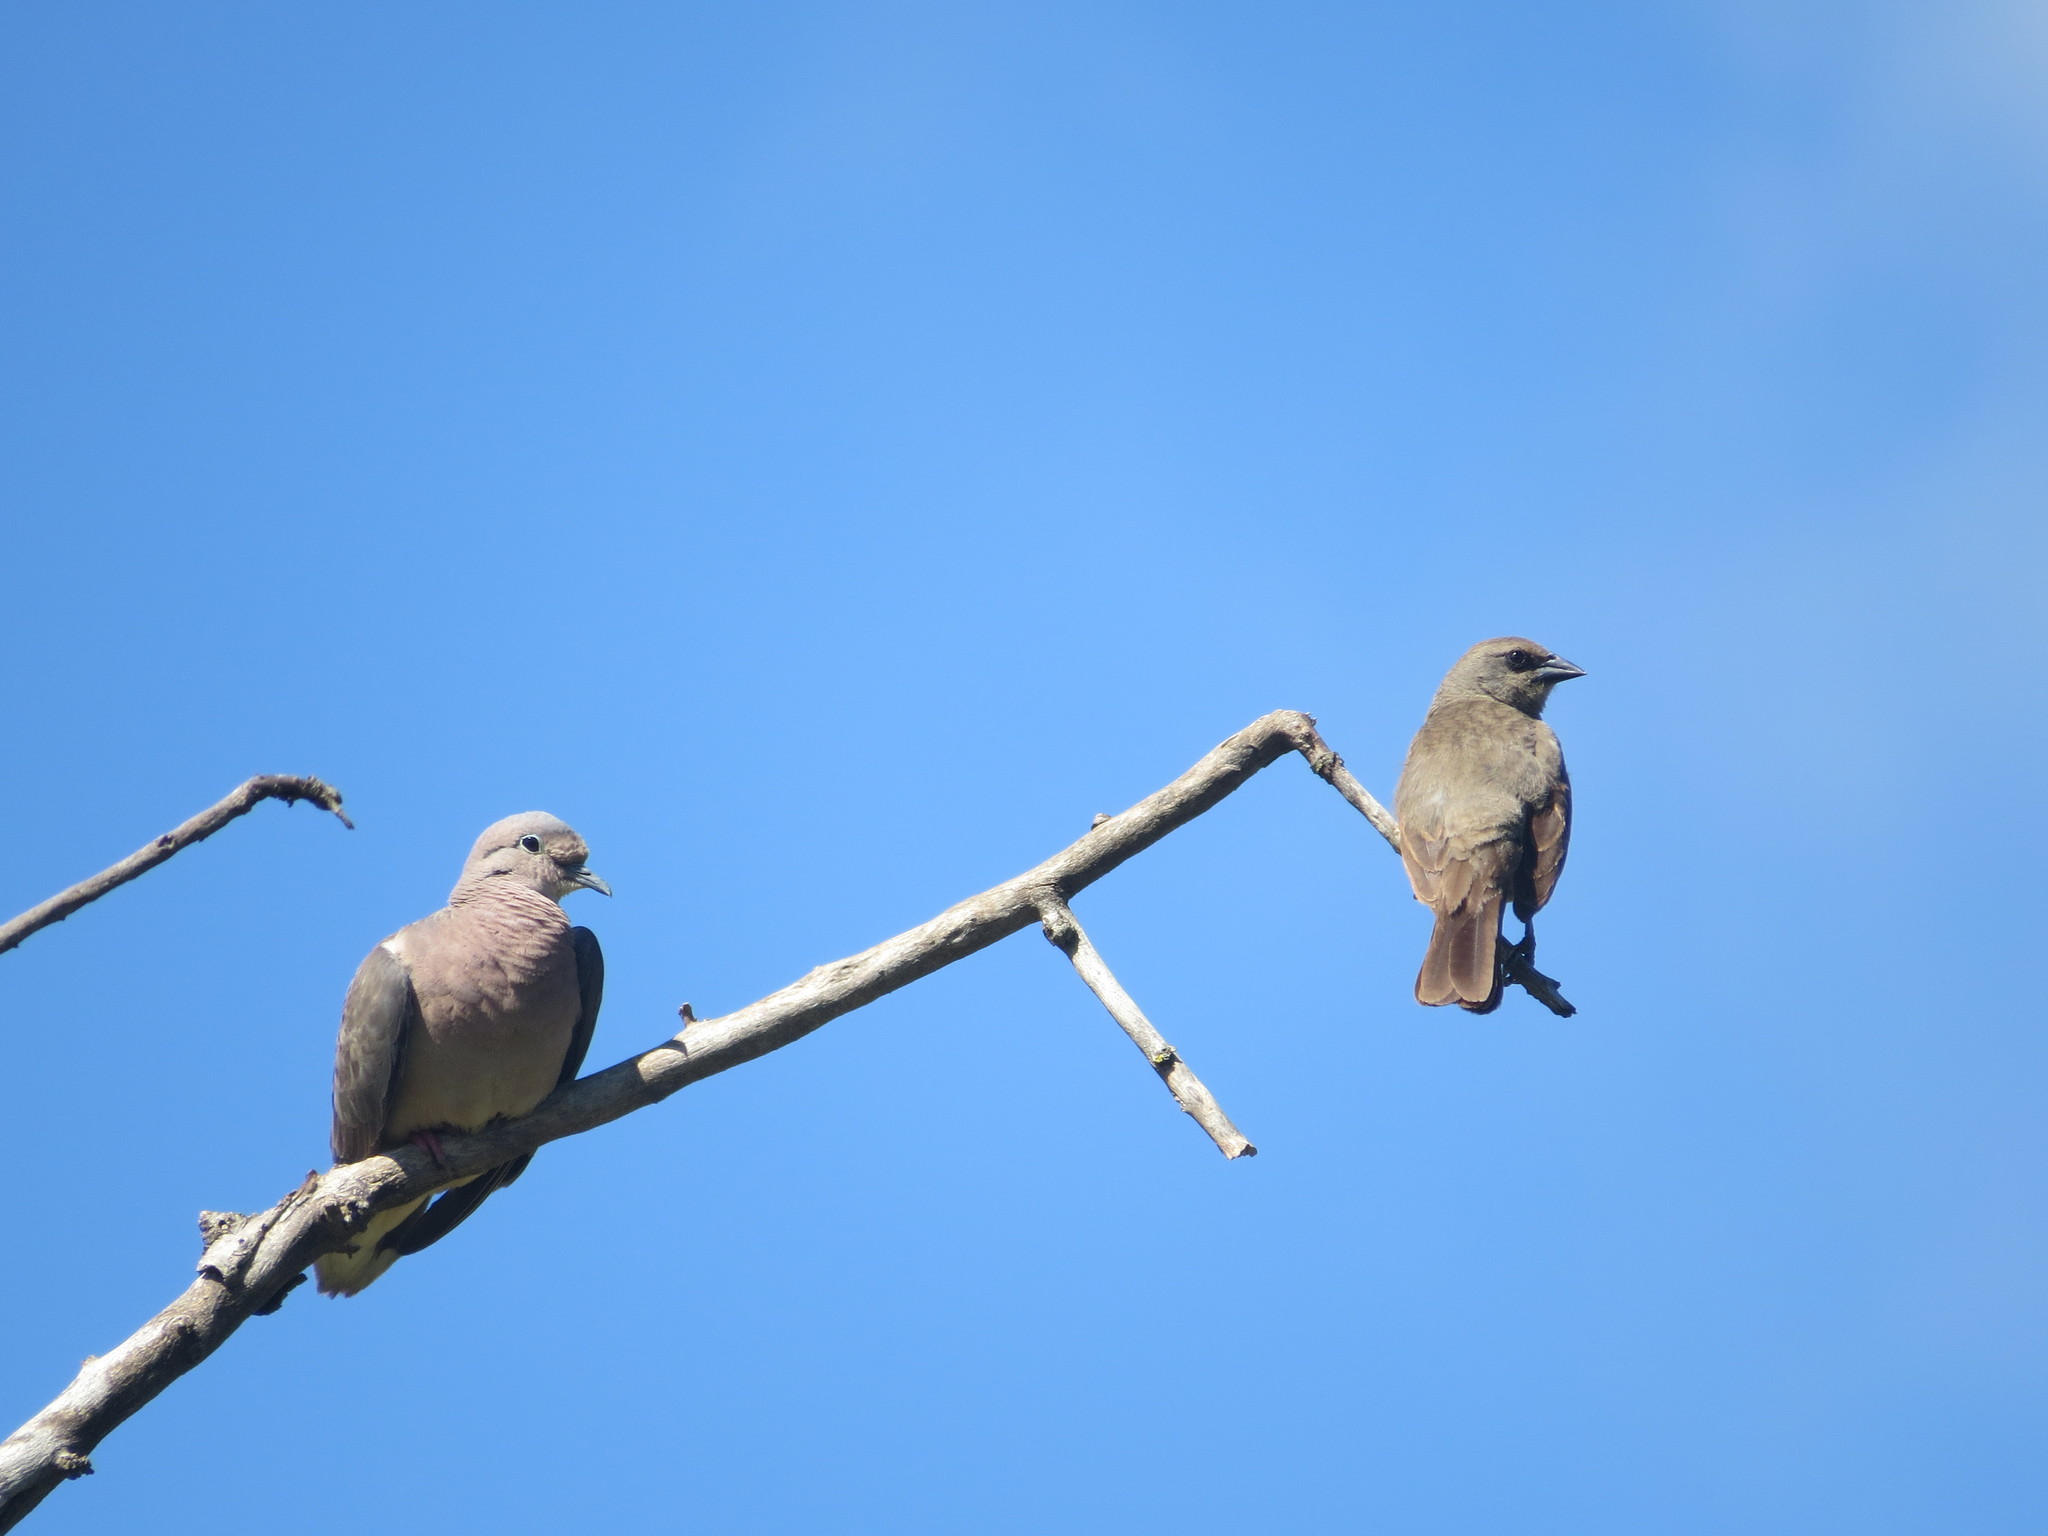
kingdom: Animalia
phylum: Chordata
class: Aves
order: Passeriformes
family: Icteridae
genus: Agelaioides
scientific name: Agelaioides badius
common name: Baywing
